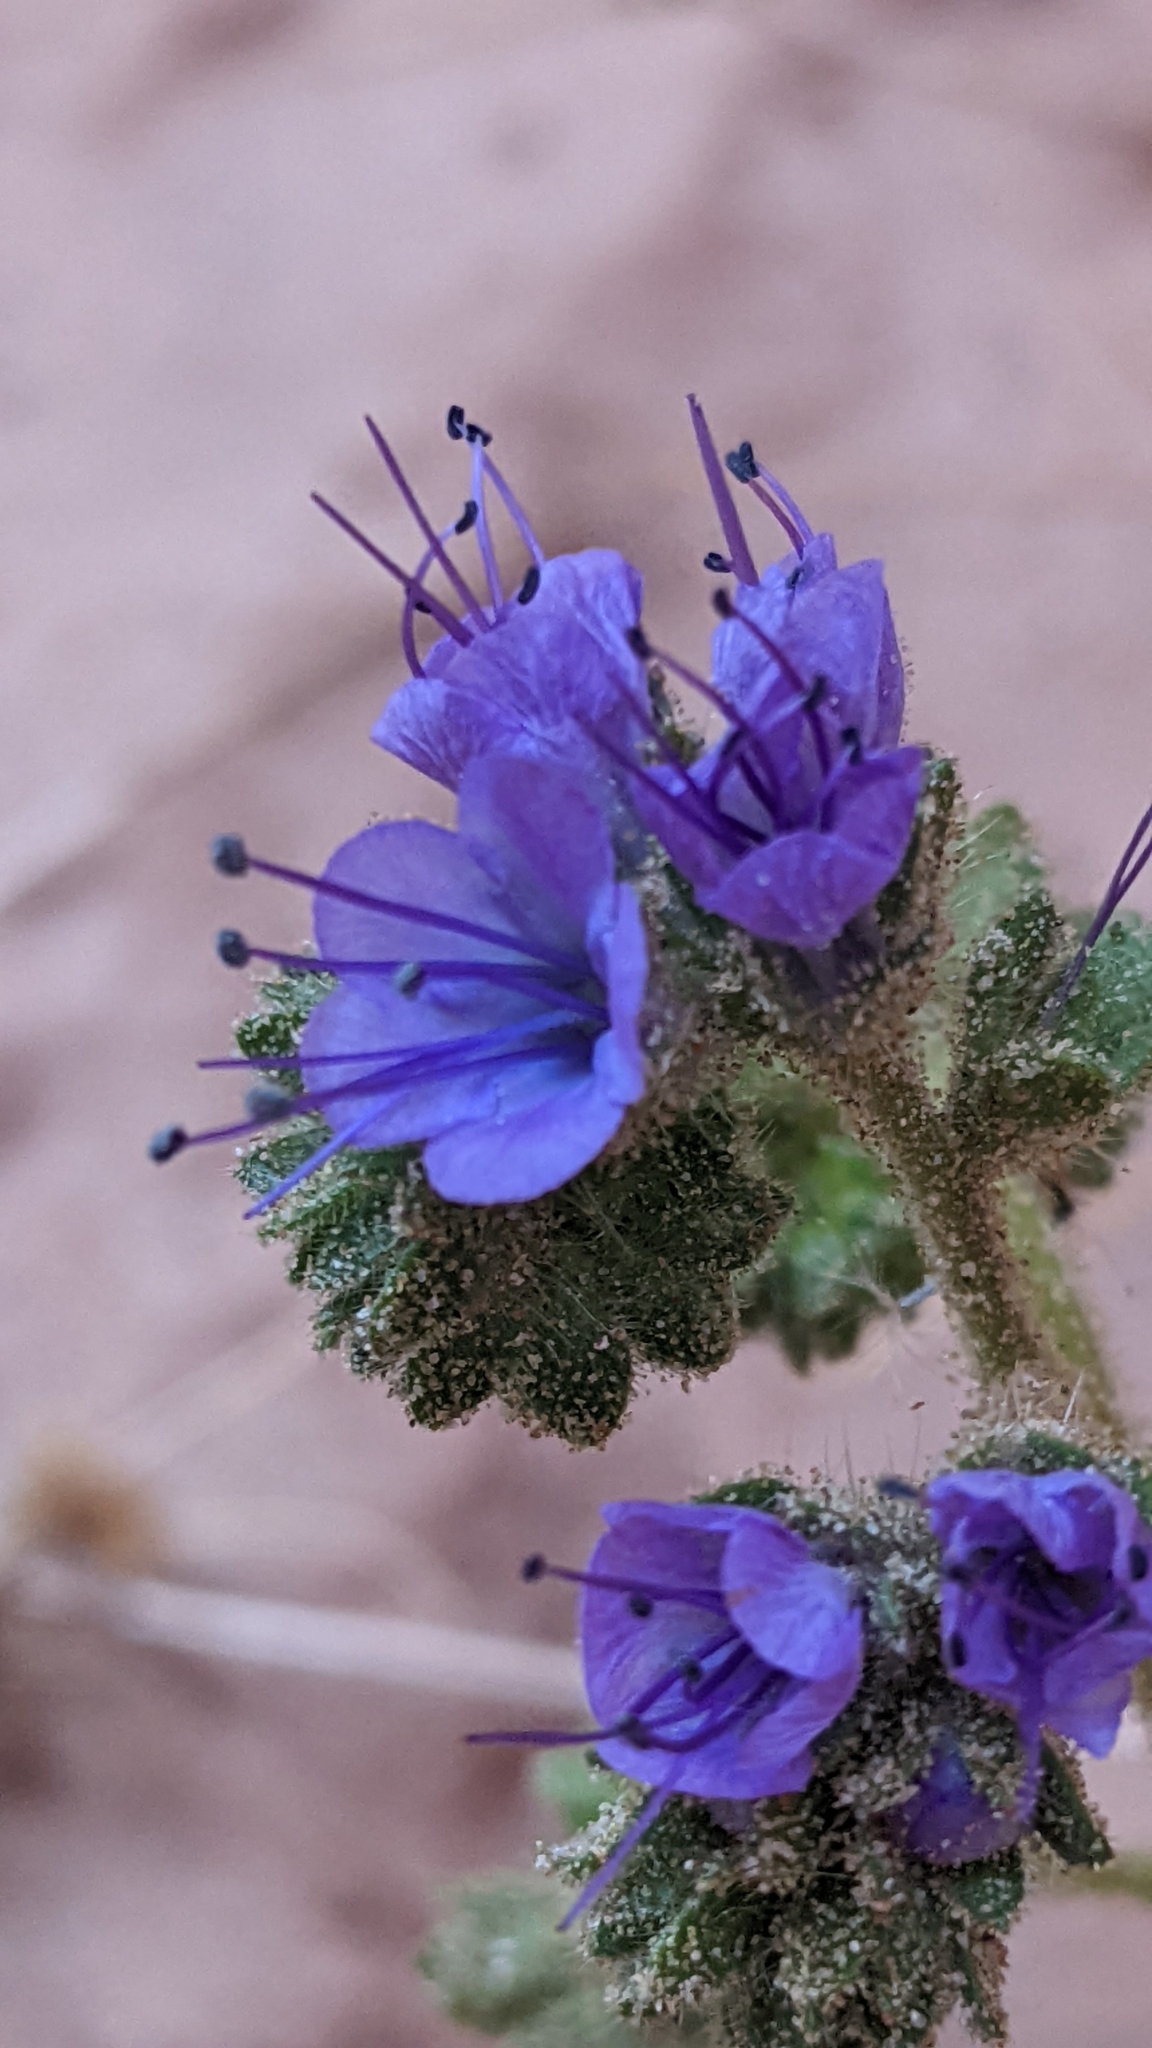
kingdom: Plantae
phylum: Tracheophyta
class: Magnoliopsida
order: Boraginales
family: Hydrophyllaceae
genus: Phacelia
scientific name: Phacelia crenulata
